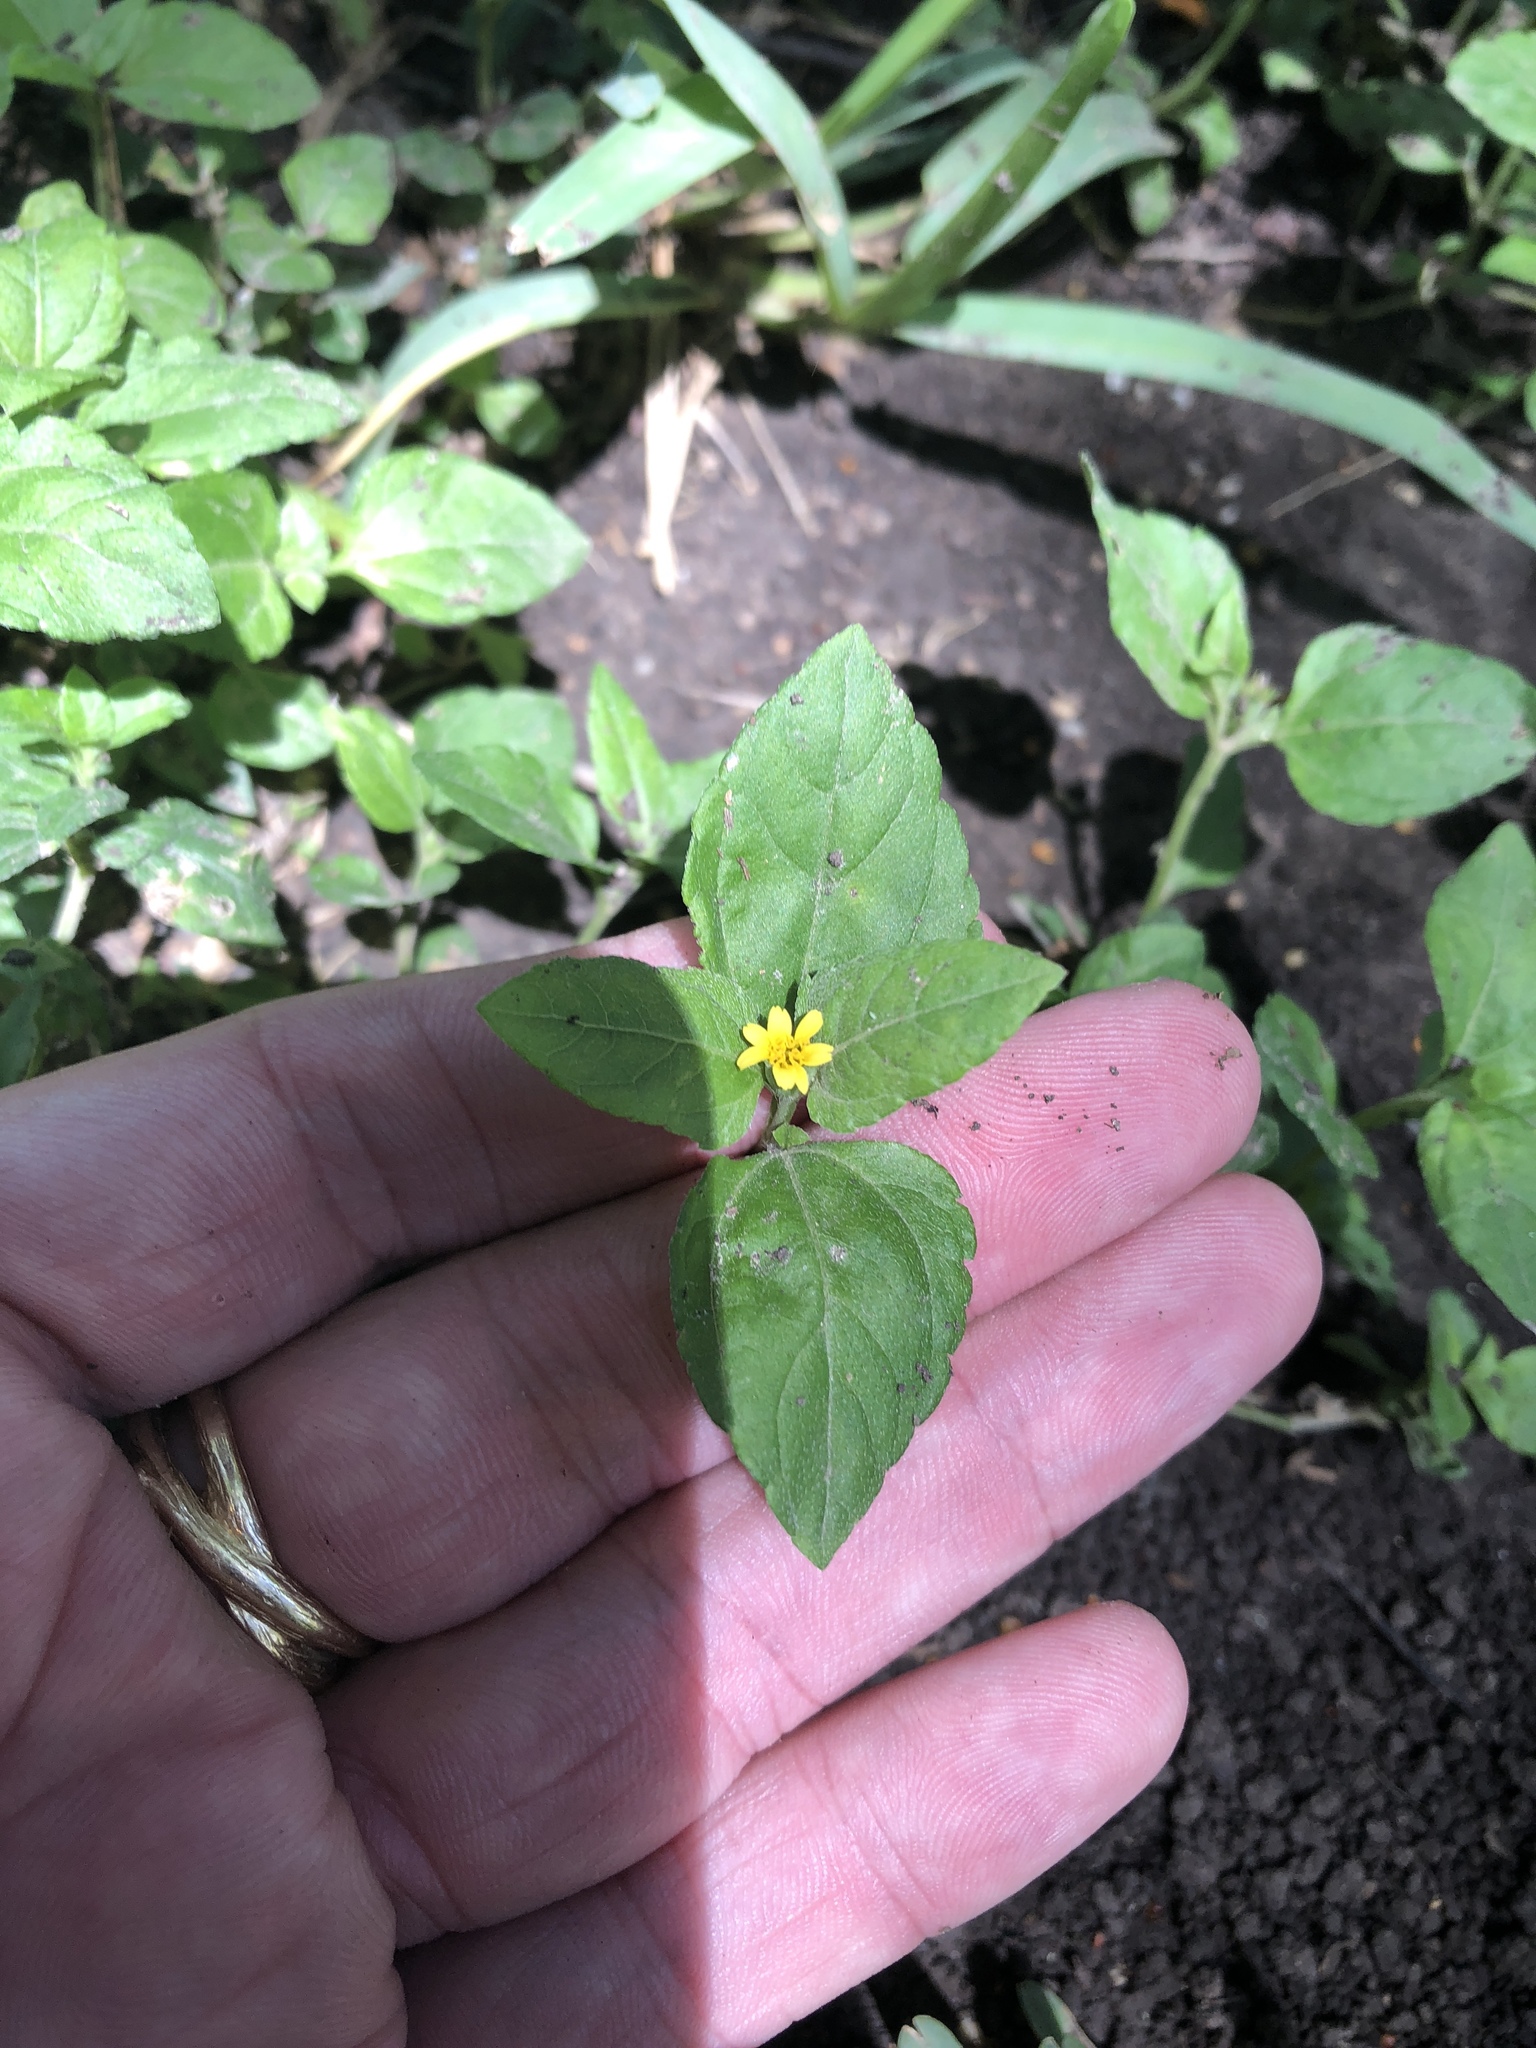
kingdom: Plantae
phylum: Tracheophyta
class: Magnoliopsida
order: Asterales
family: Asteraceae
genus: Calyptocarpus
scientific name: Calyptocarpus vialis
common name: Straggler daisy
